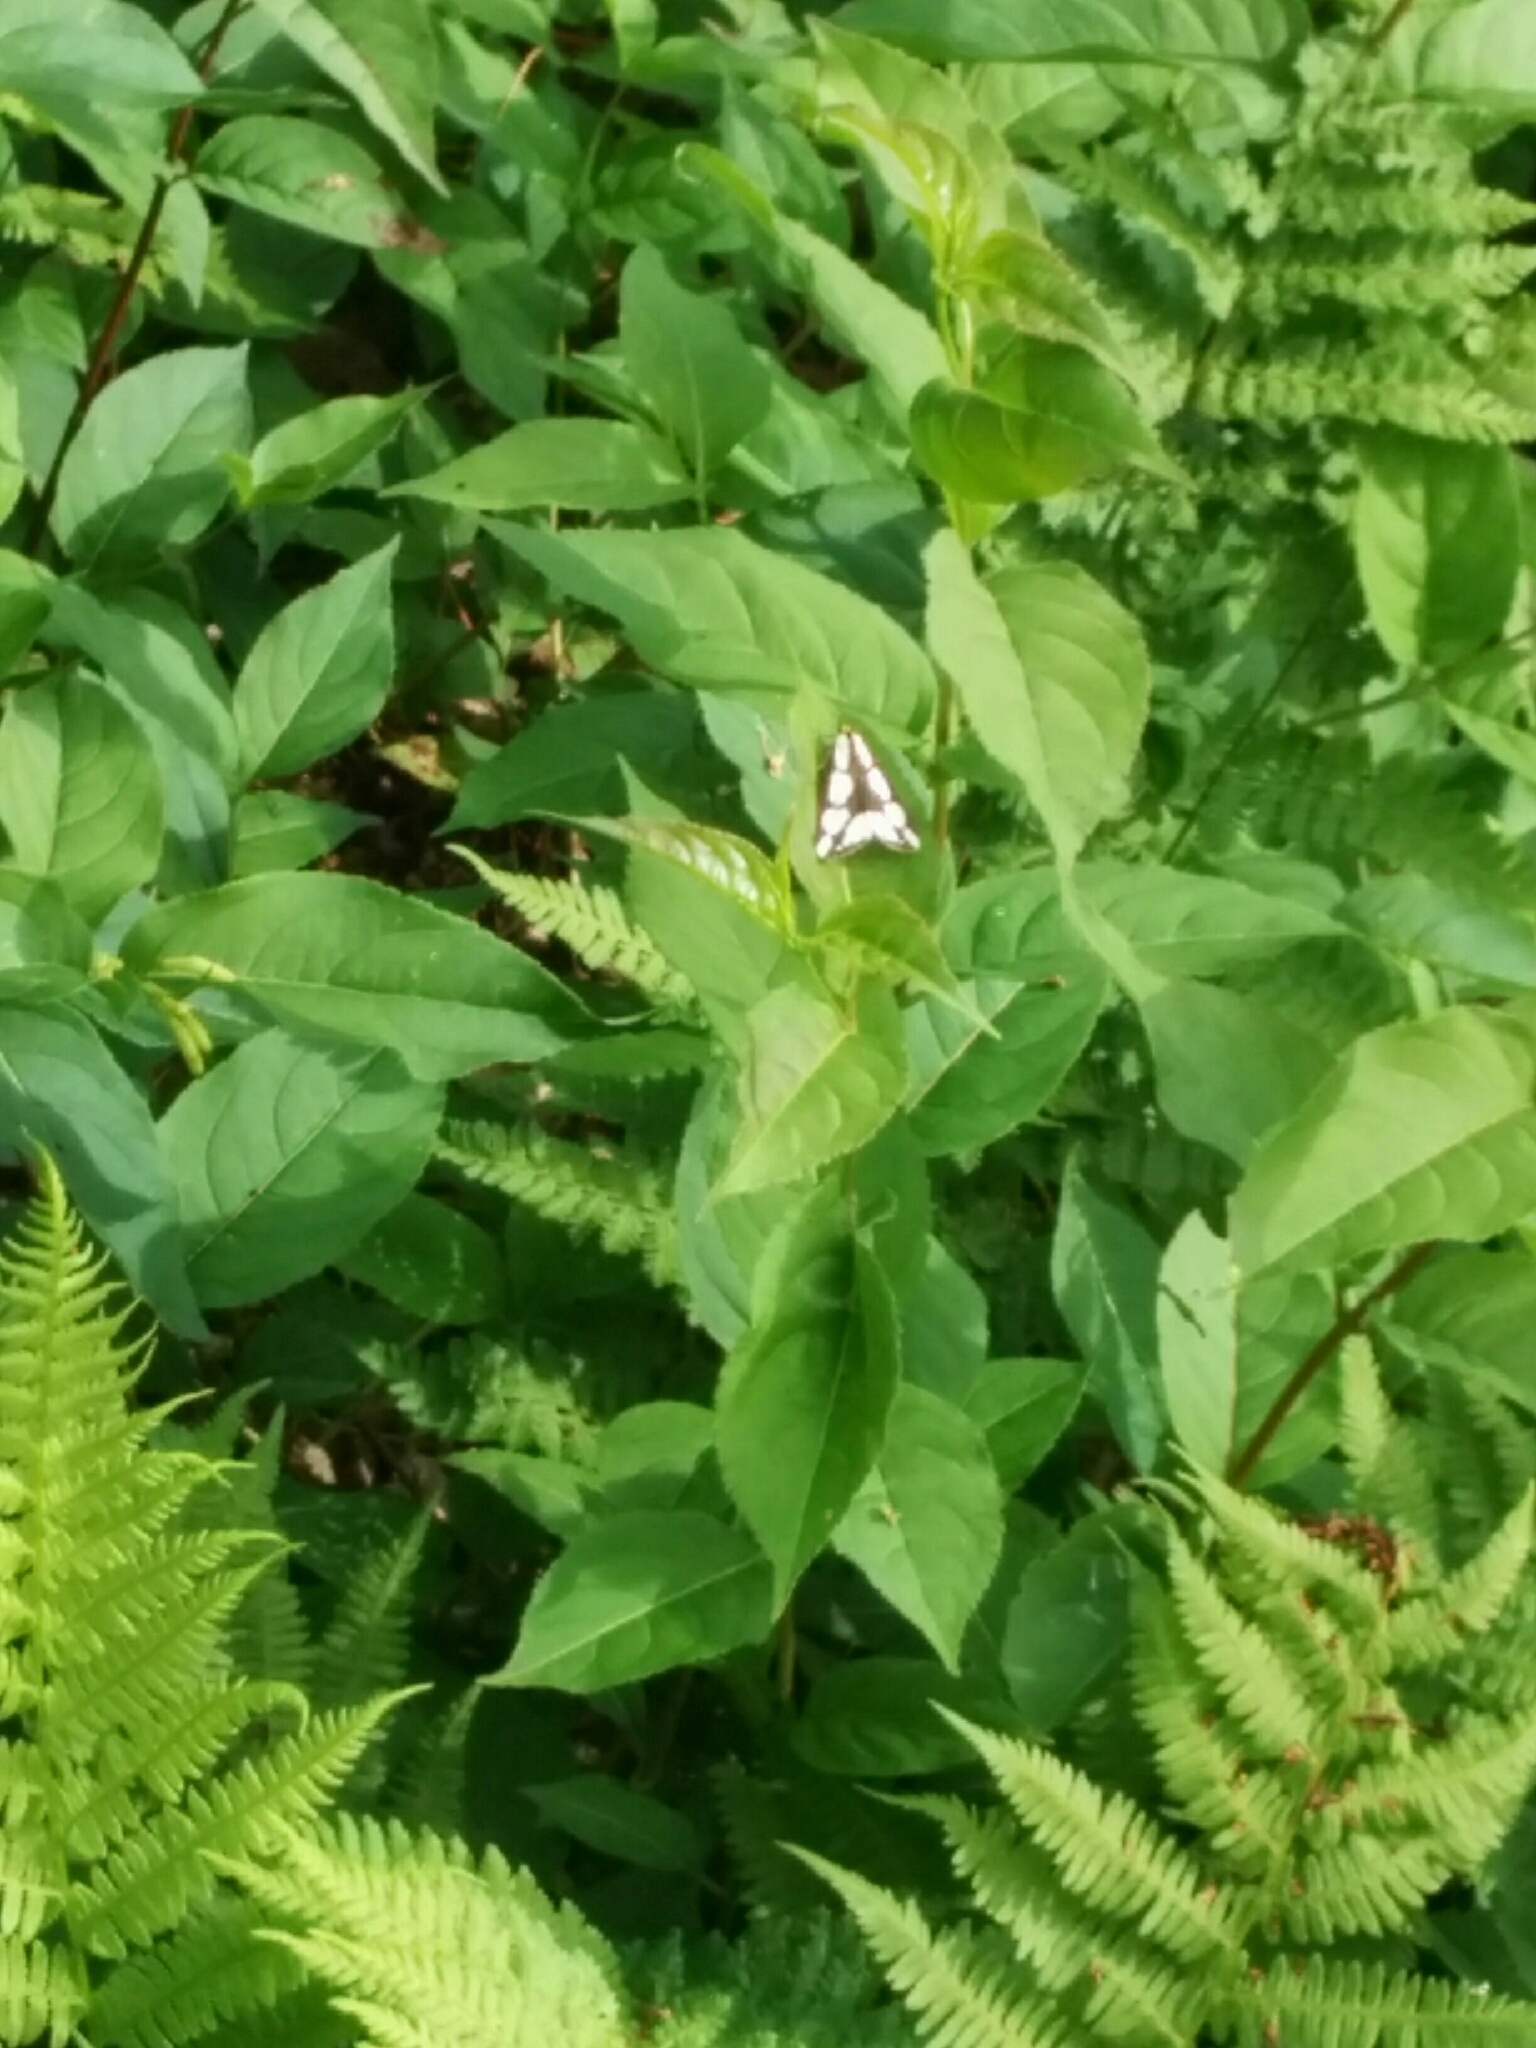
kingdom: Animalia
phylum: Arthropoda
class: Insecta
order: Lepidoptera
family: Erebidae
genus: Haploa
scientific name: Haploa lecontei
